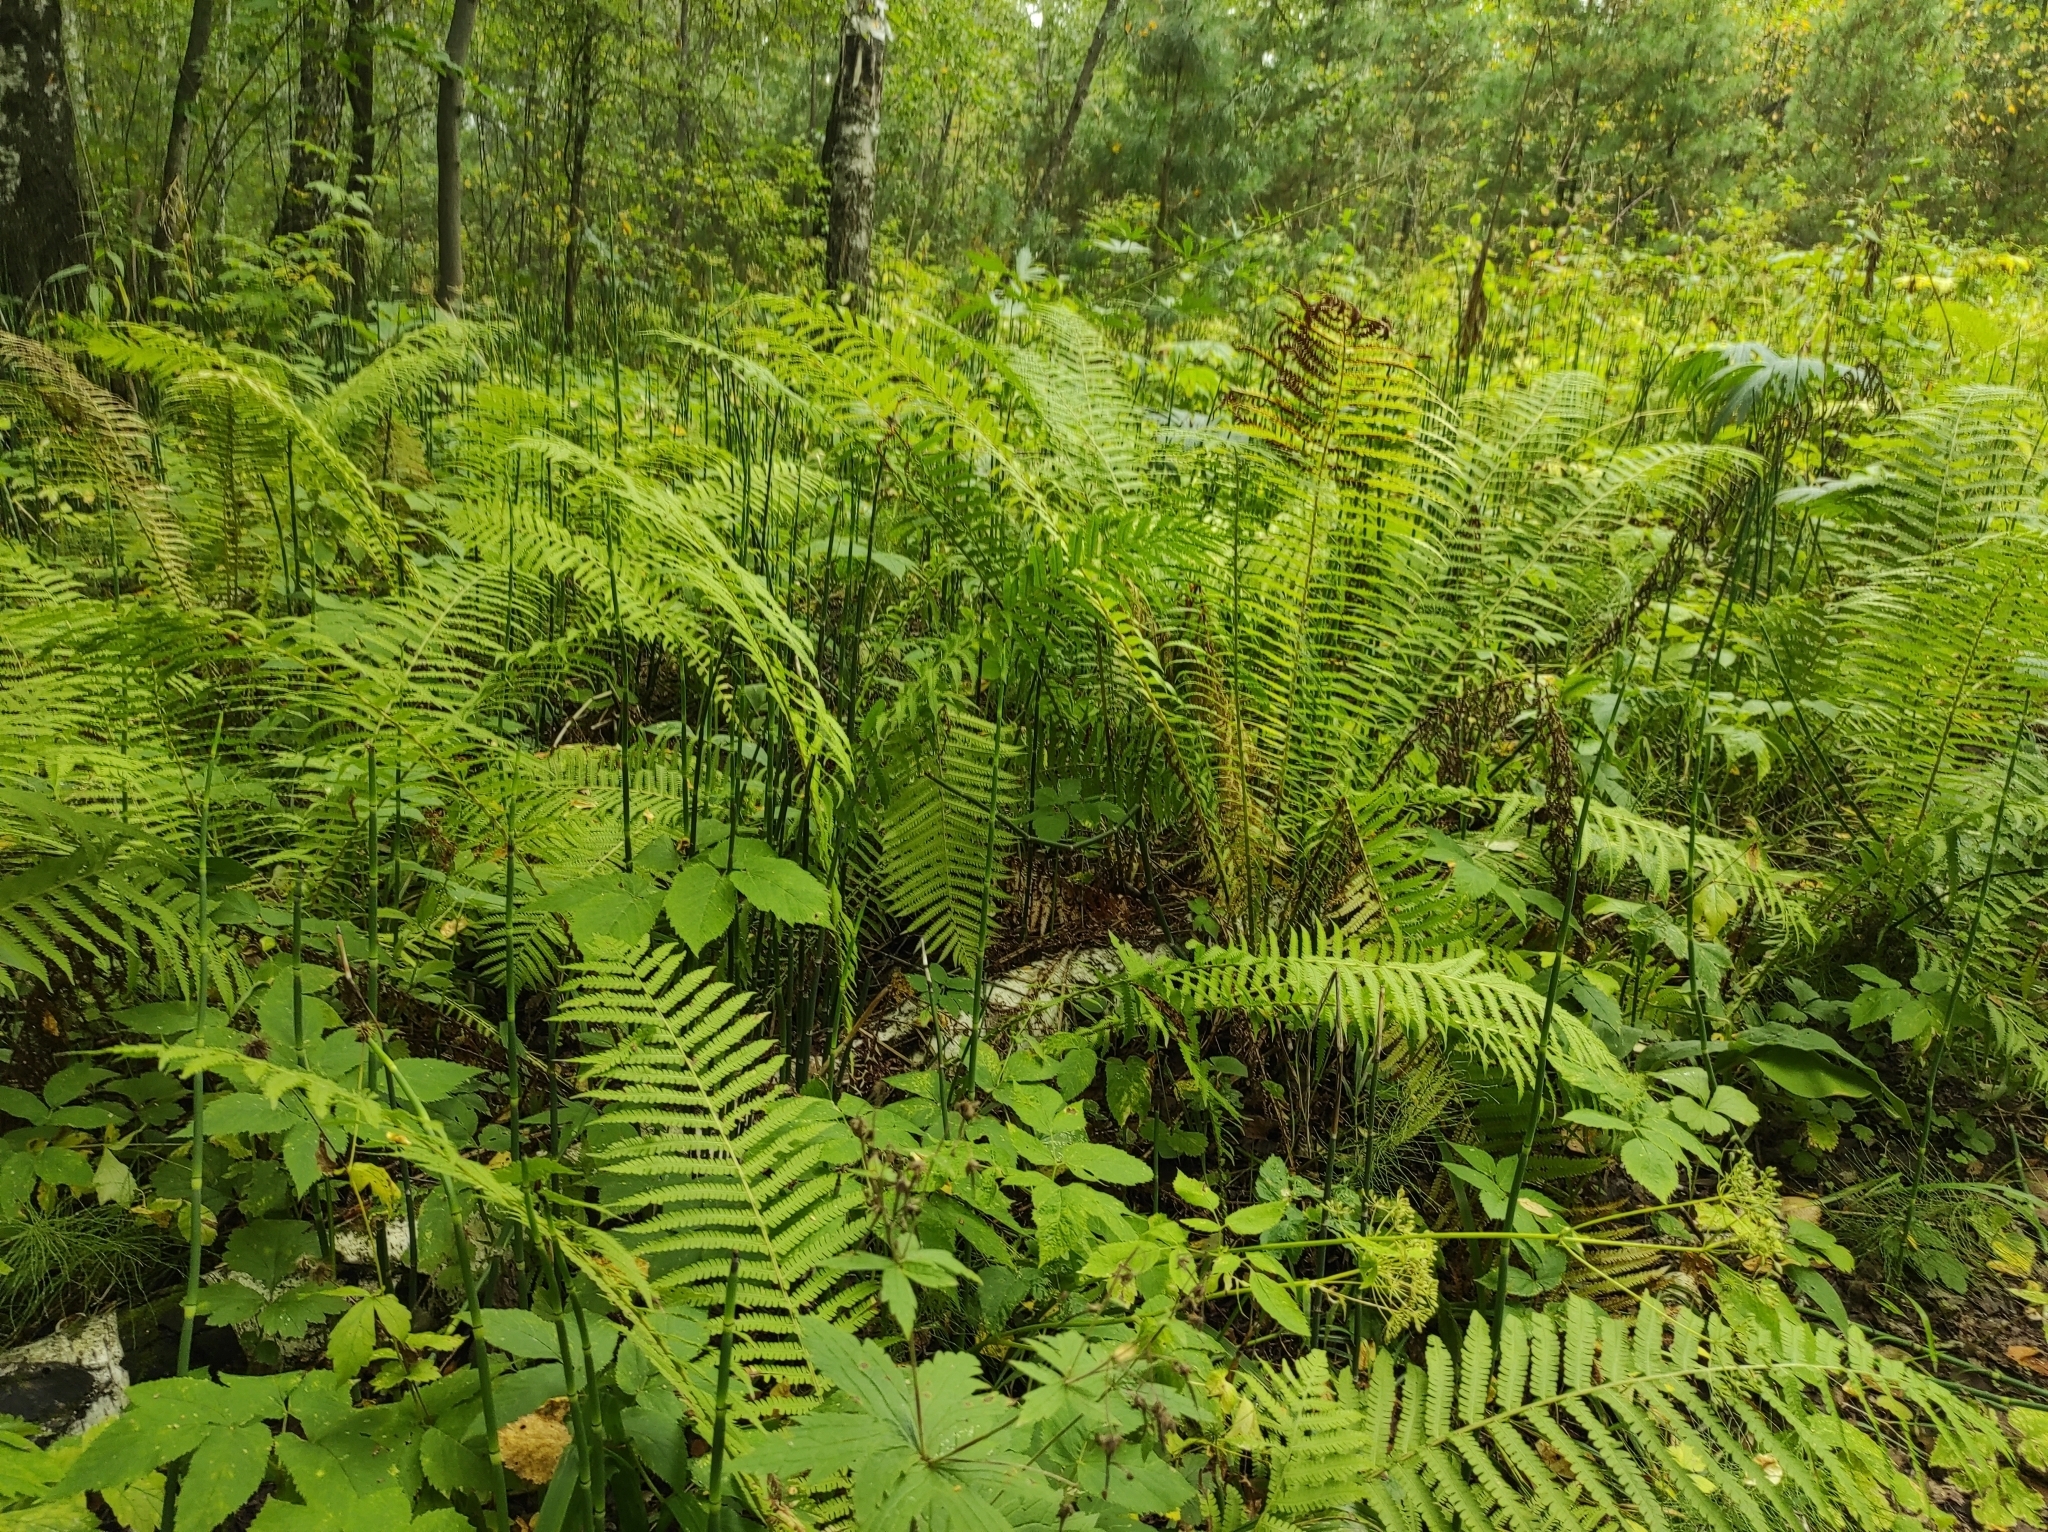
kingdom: Plantae
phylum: Tracheophyta
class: Polypodiopsida
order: Equisetales
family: Equisetaceae
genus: Equisetum
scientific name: Equisetum hyemale
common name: Rough horsetail
